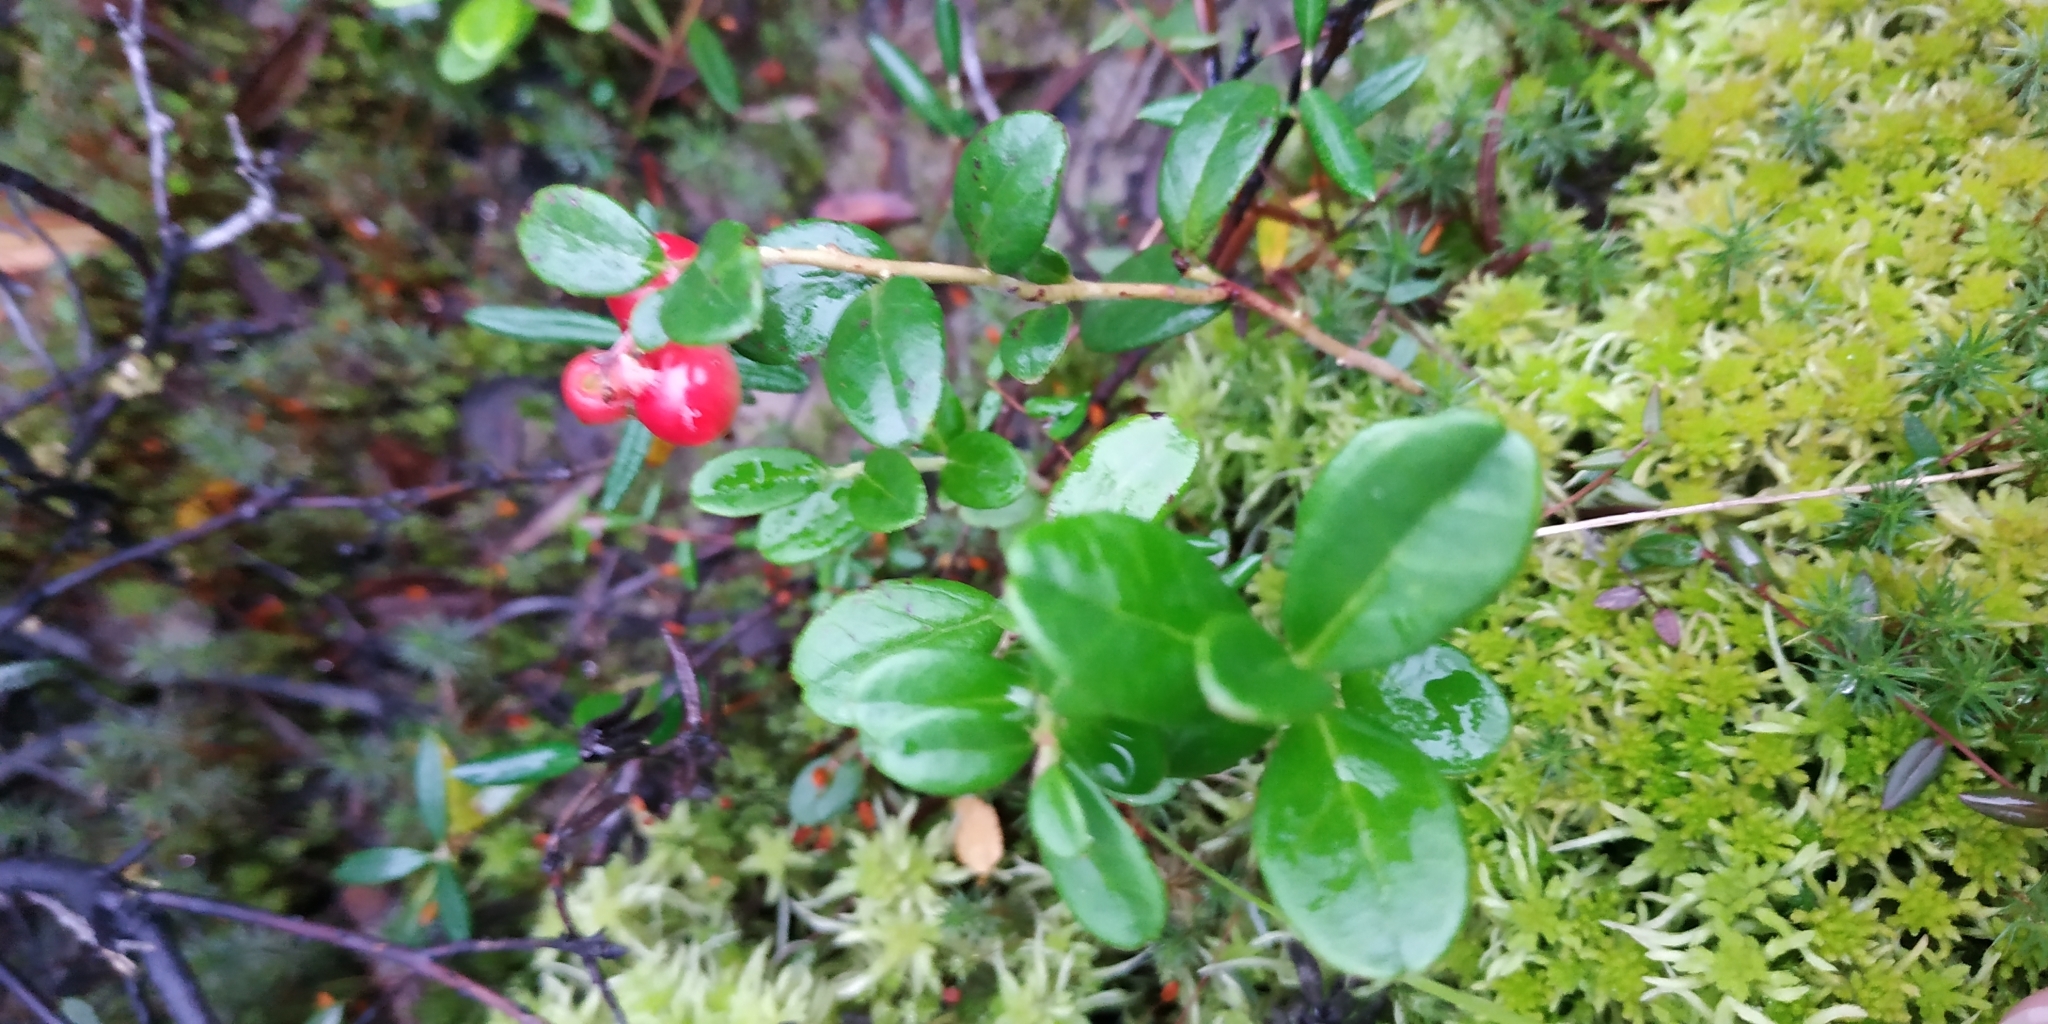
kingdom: Plantae
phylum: Tracheophyta
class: Magnoliopsida
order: Ericales
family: Ericaceae
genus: Vaccinium
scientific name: Vaccinium vitis-idaea
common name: Cowberry
